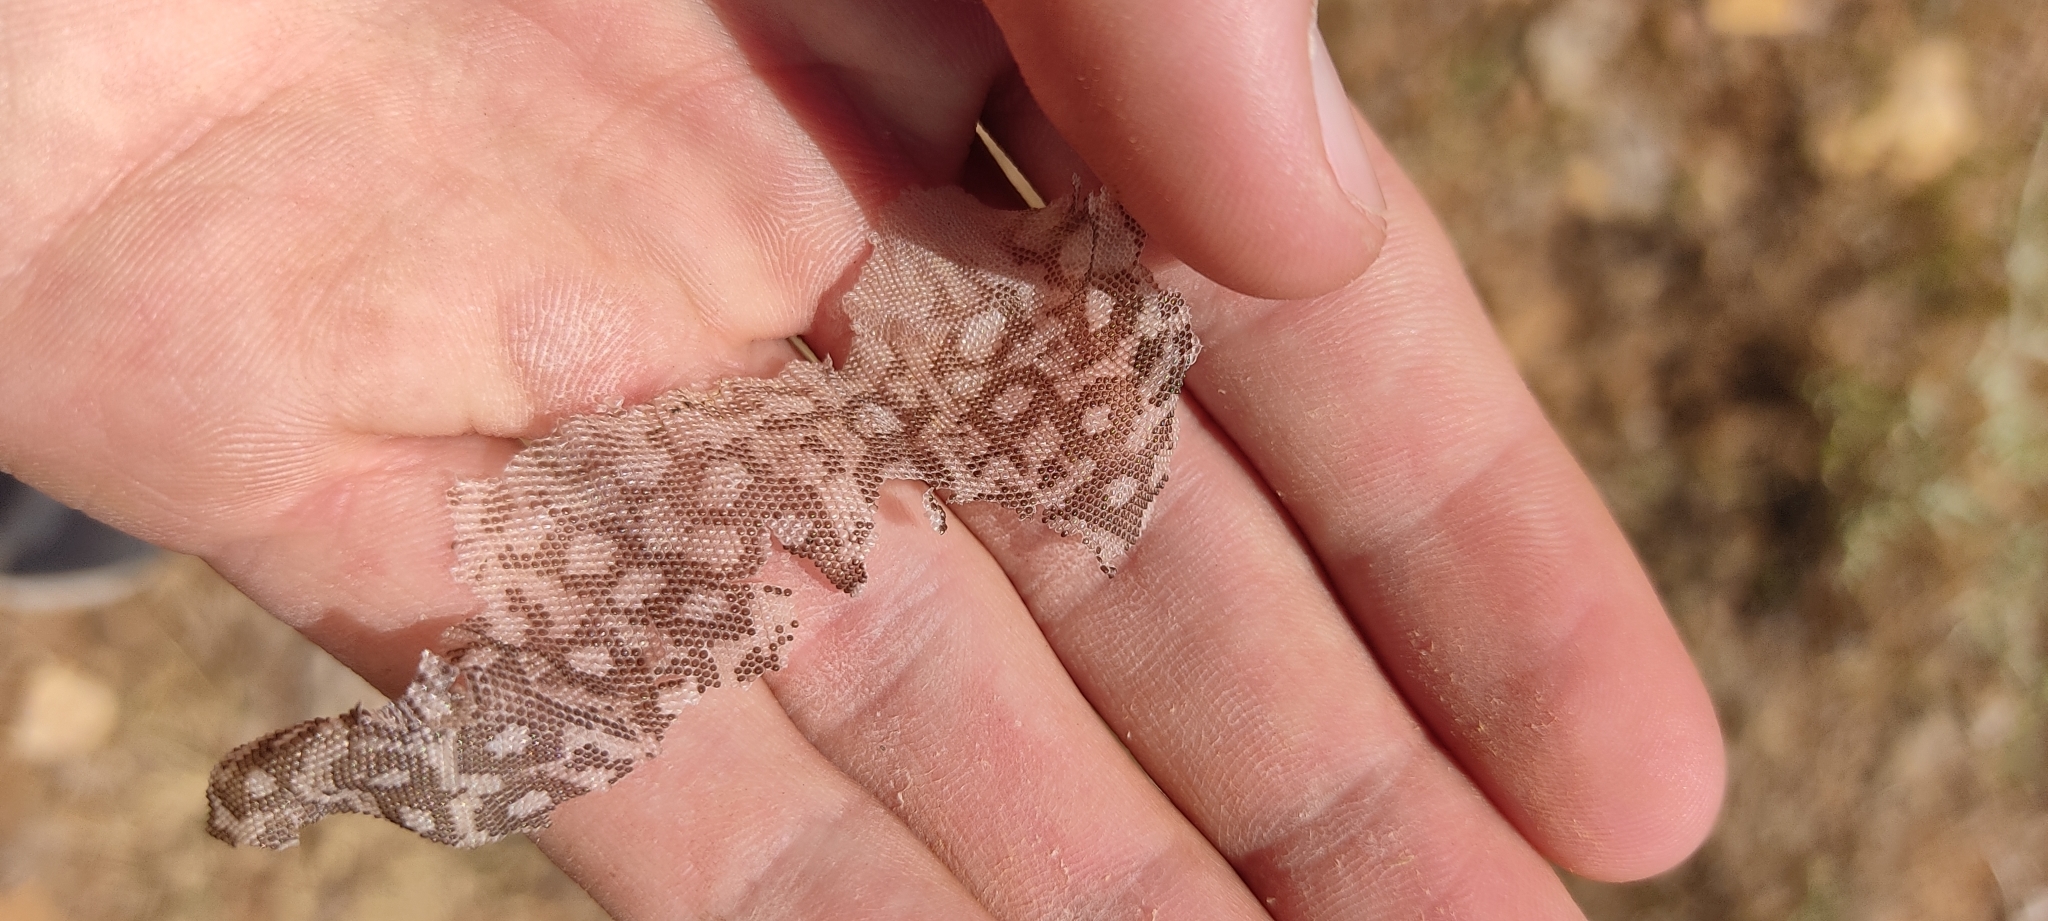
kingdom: Animalia
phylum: Chordata
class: Squamata
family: Lacertidae
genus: Timon
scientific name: Timon lepidus
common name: Ocellated lizard
